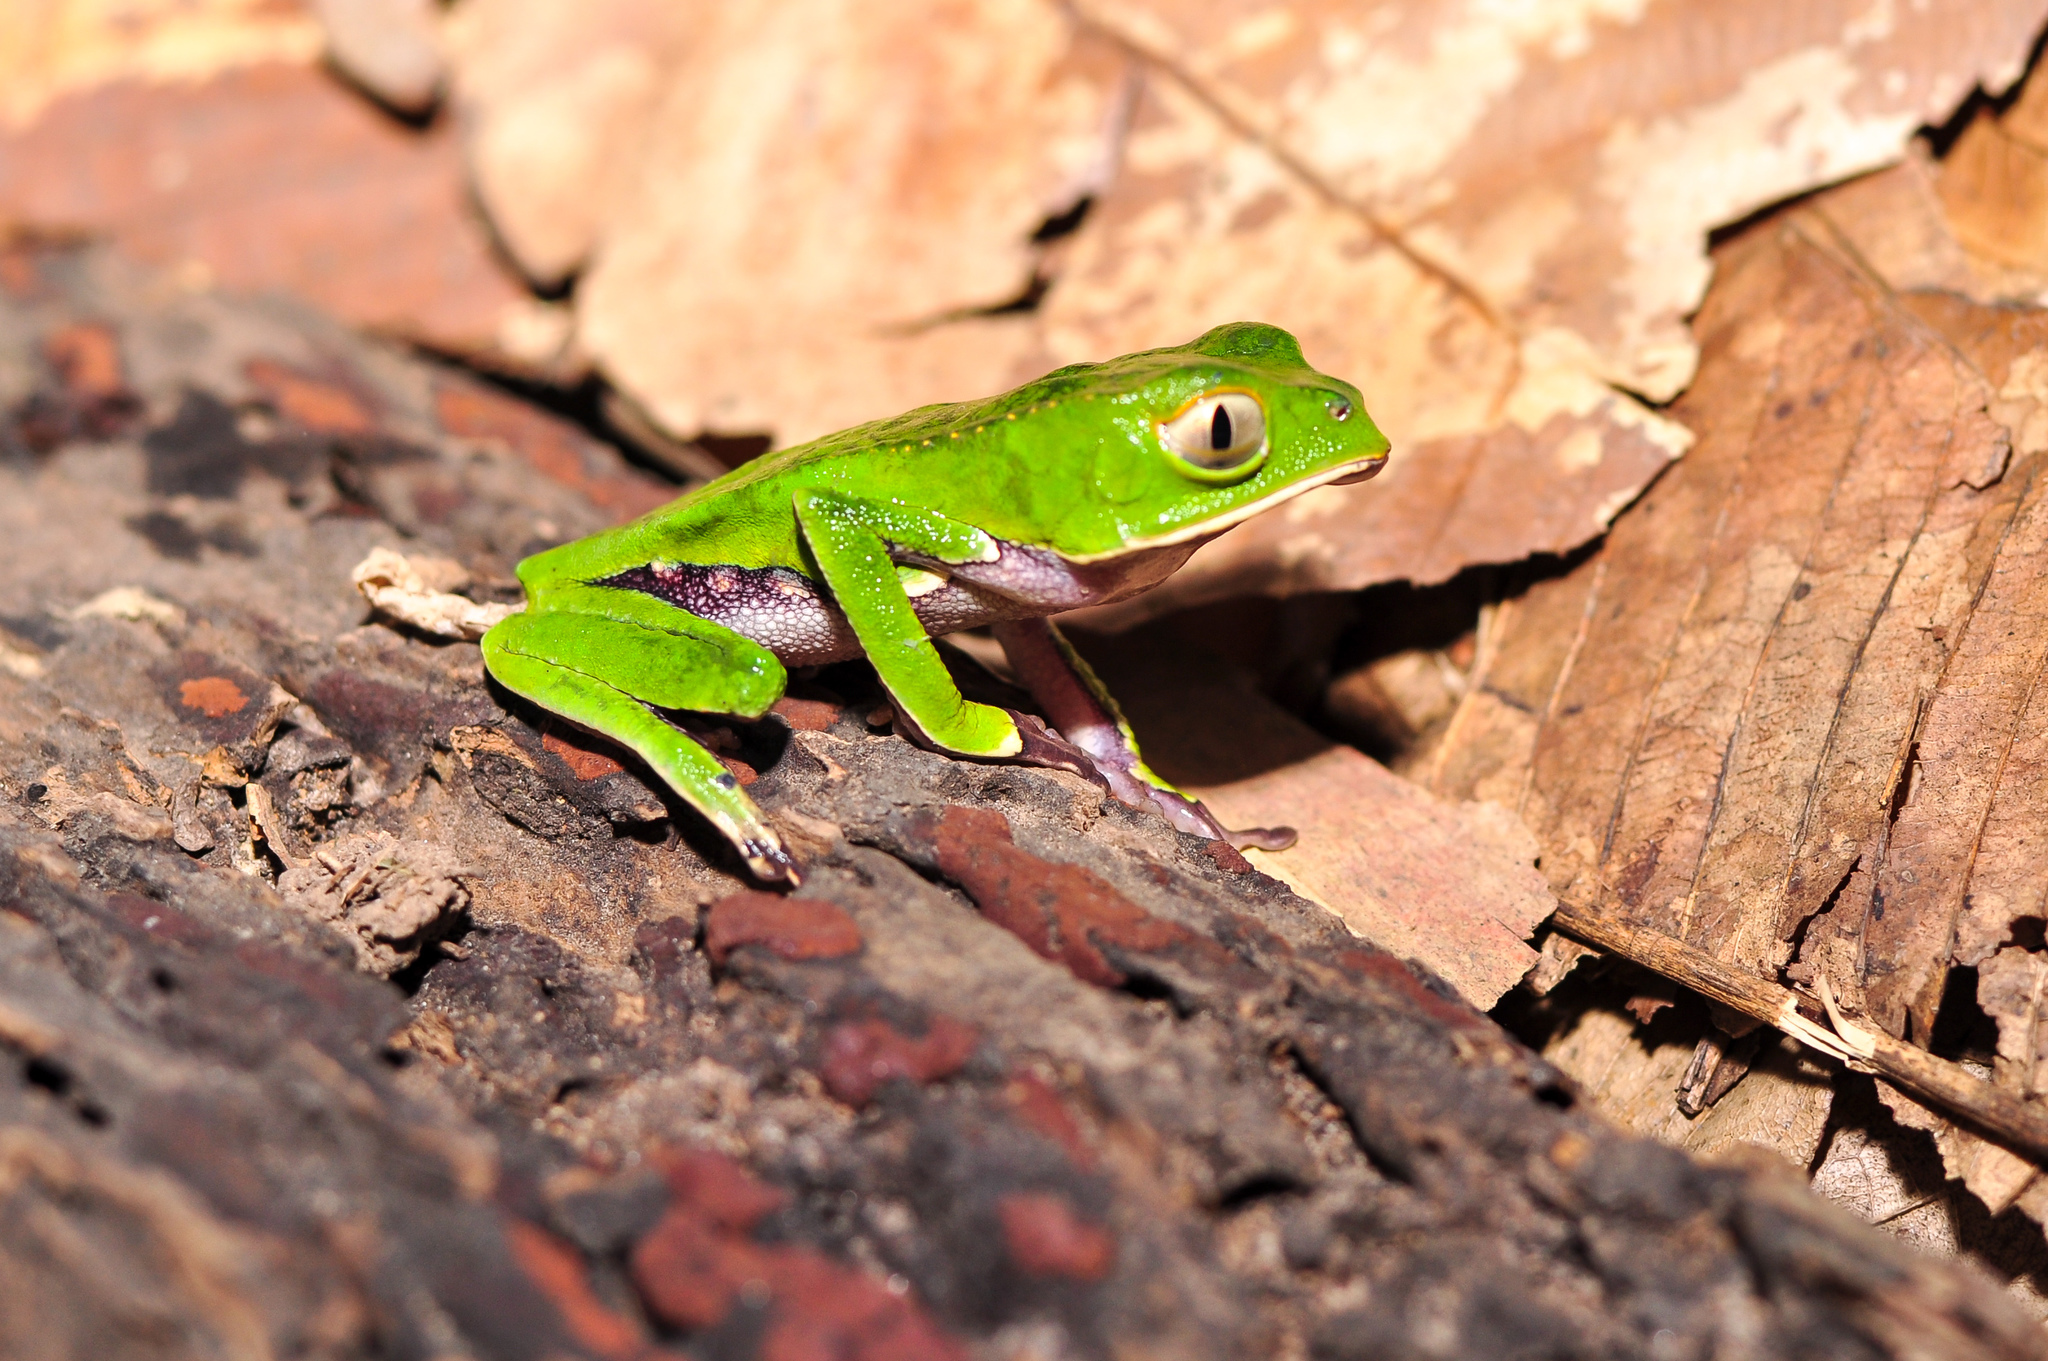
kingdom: Animalia
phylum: Chordata
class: Amphibia
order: Anura
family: Phyllomedusidae
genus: Phyllomedusa
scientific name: Phyllomedusa vaillantii
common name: White-lined leaf frog
